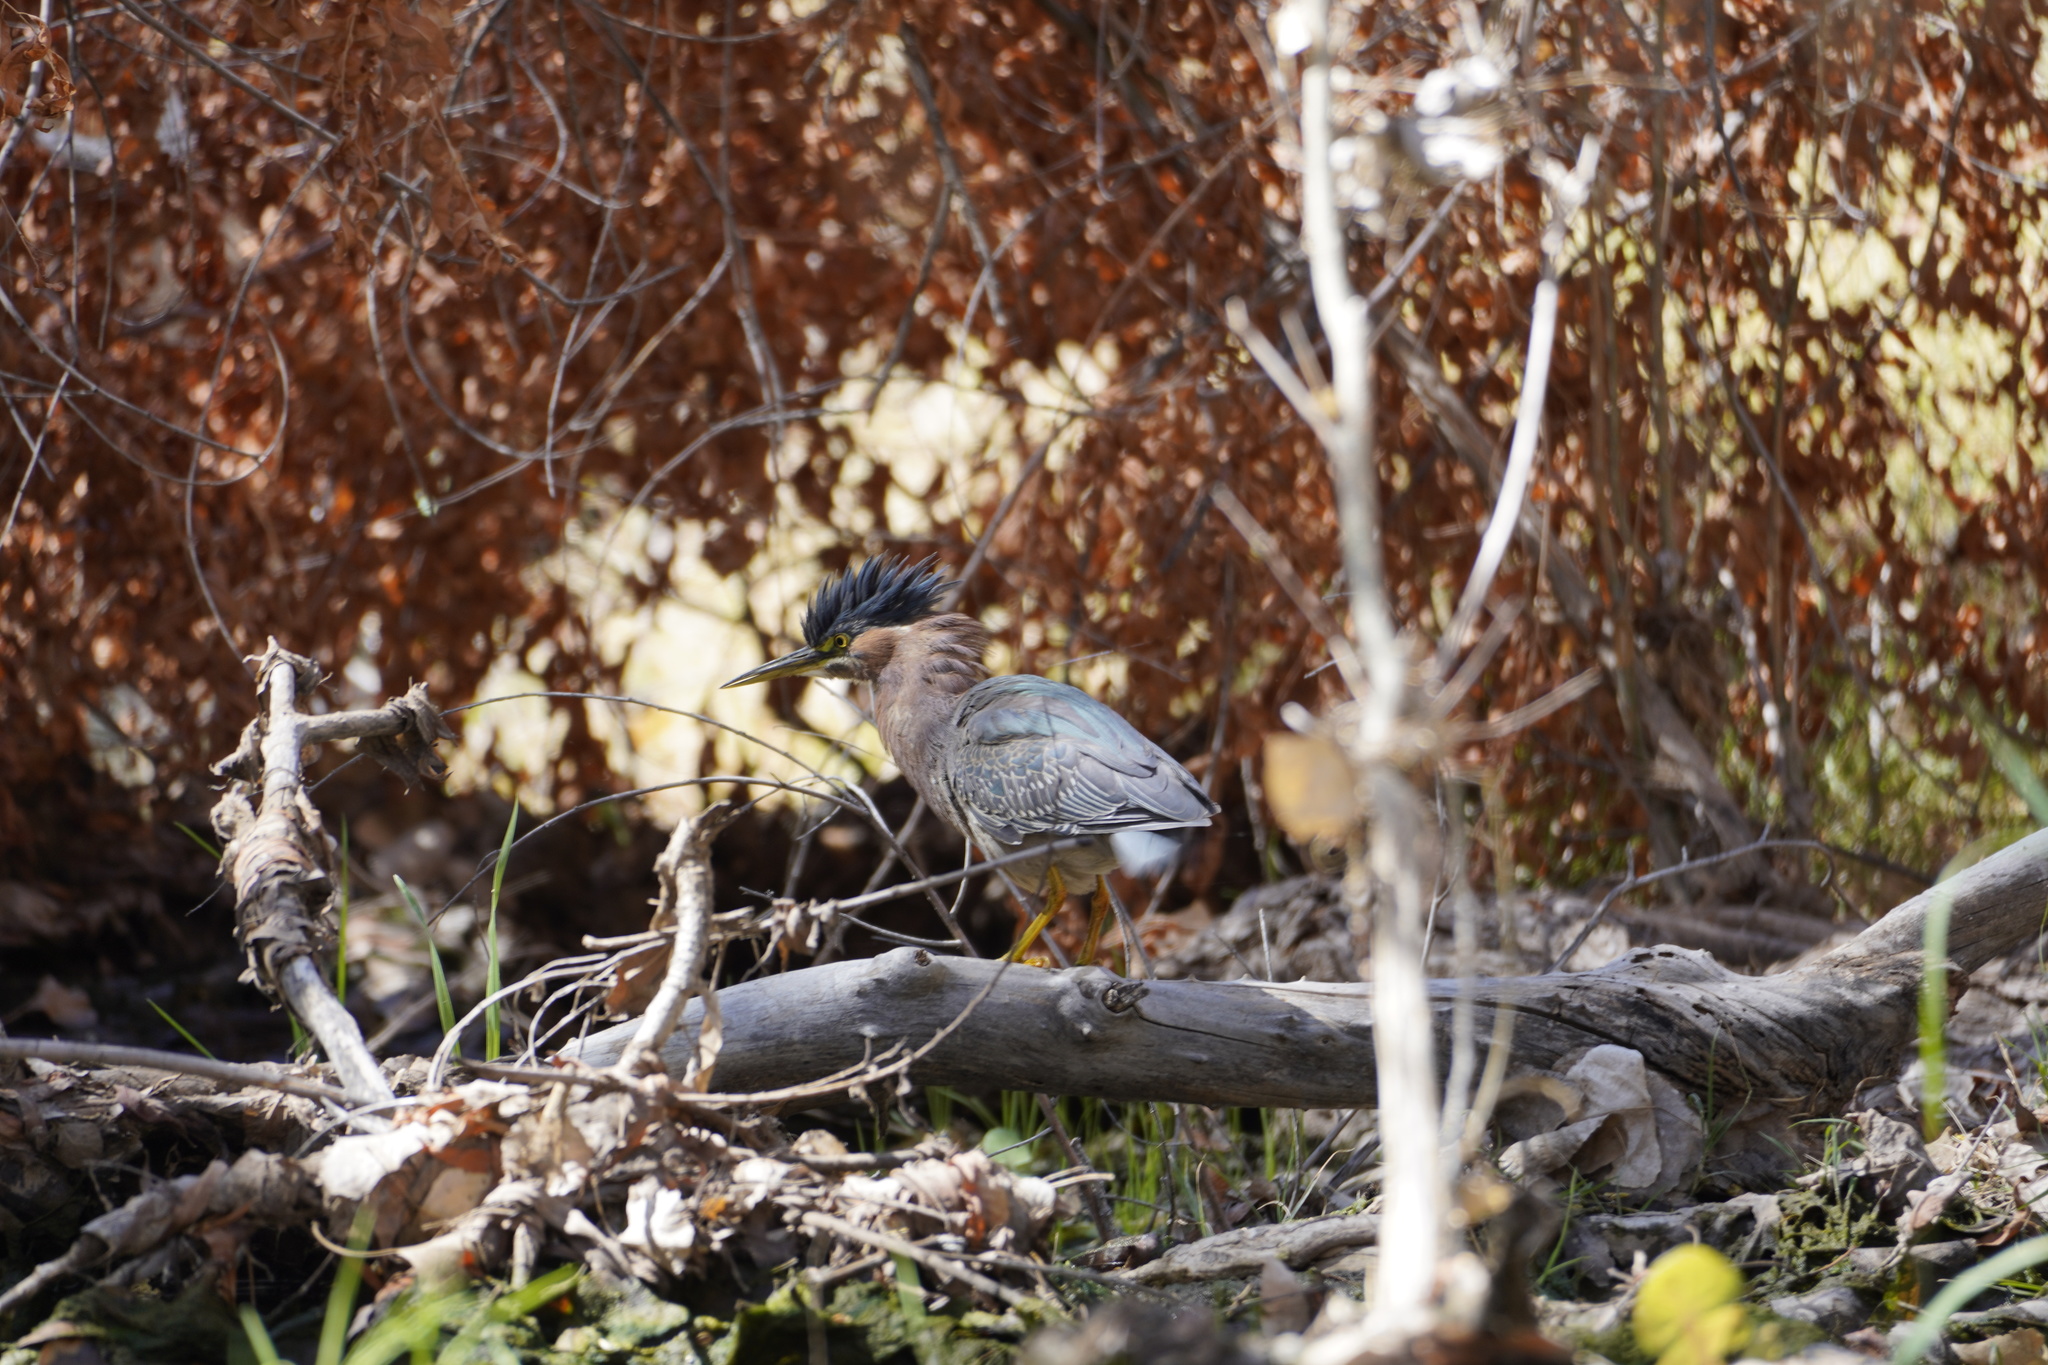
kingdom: Animalia
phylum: Chordata
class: Aves
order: Pelecaniformes
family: Ardeidae
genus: Butorides
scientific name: Butorides virescens
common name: Green heron
